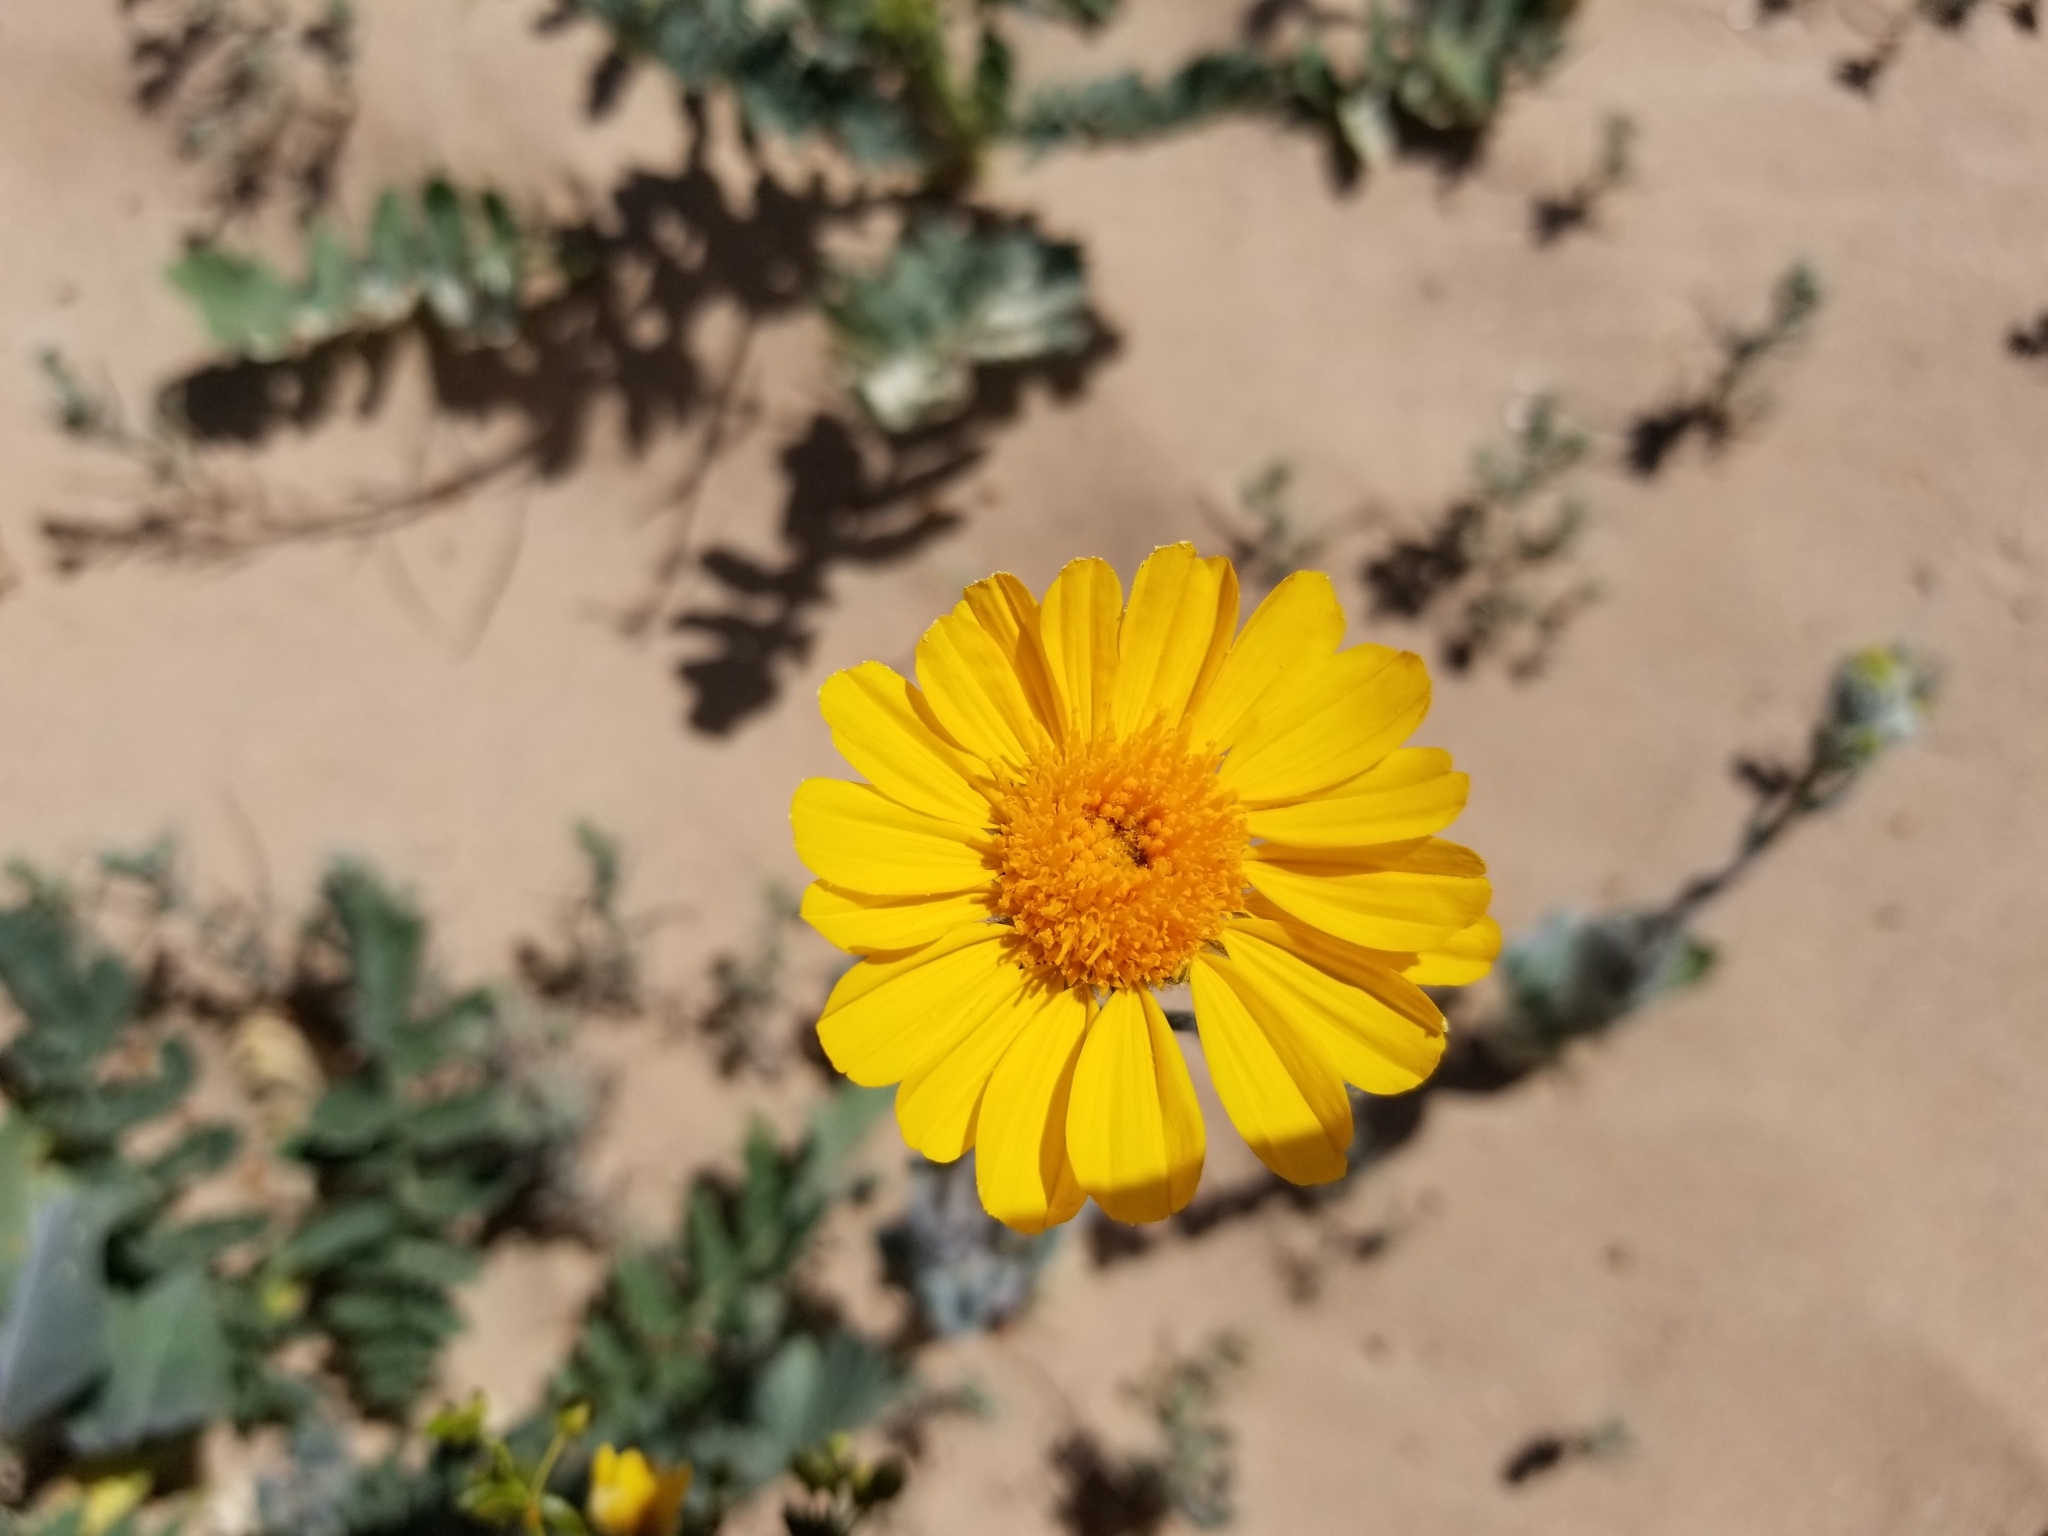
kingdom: Plantae
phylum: Tracheophyta
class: Magnoliopsida
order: Asterales
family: Asteraceae
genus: Geraea
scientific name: Geraea canescens
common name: Desert-gold
